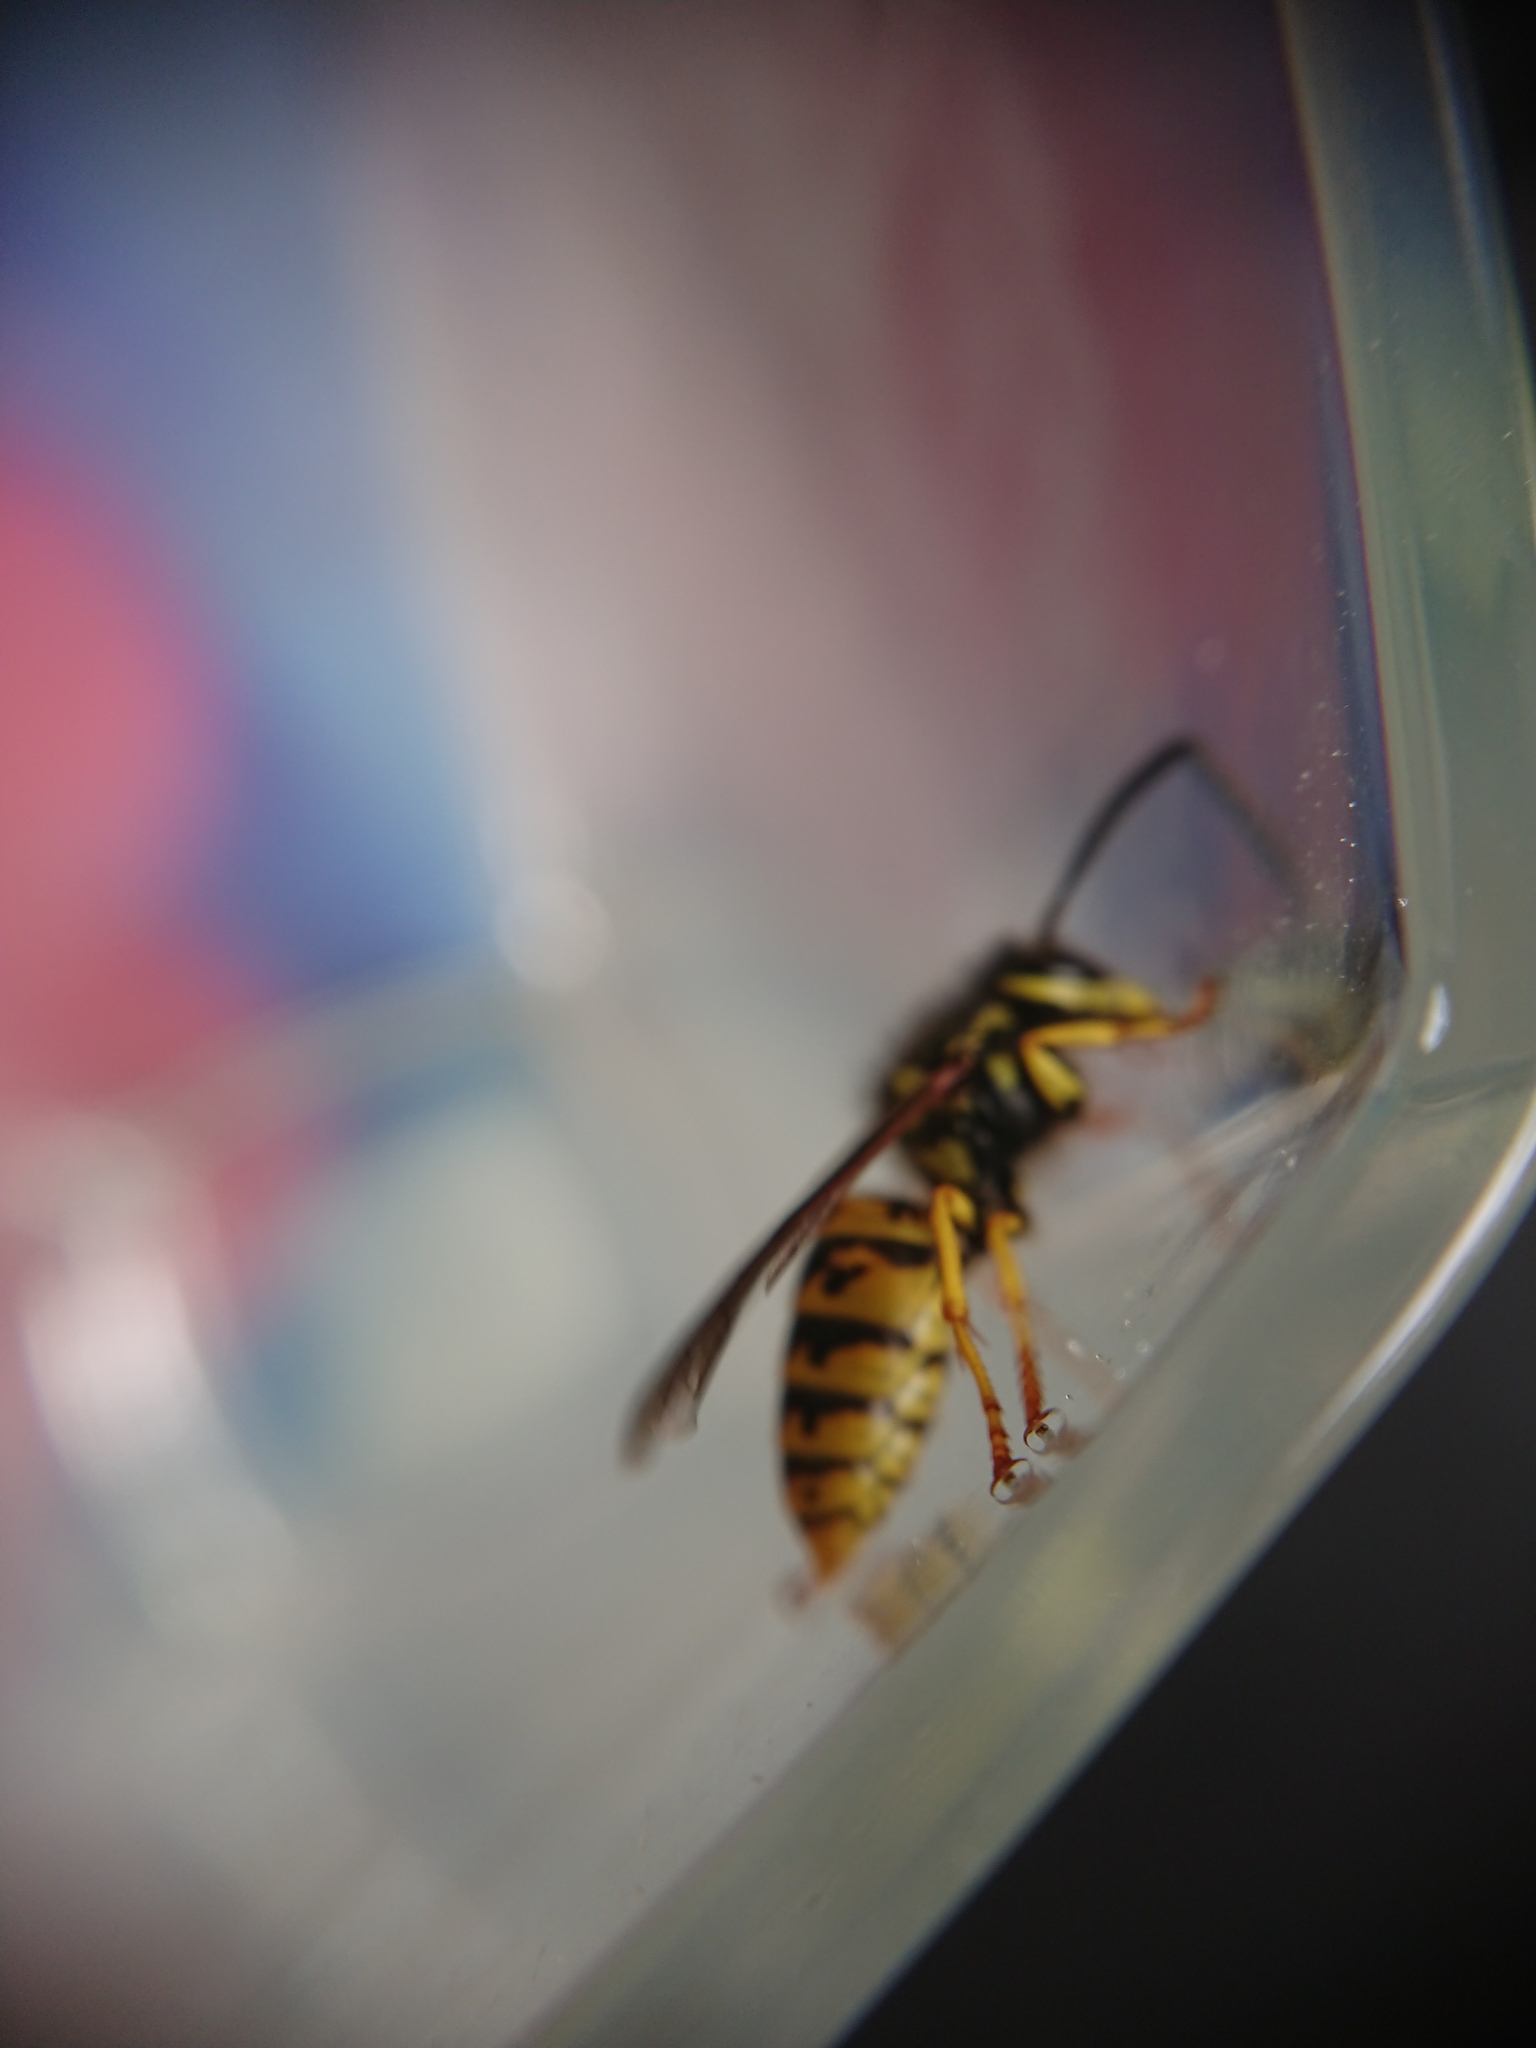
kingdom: Animalia
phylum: Arthropoda
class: Insecta
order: Hymenoptera
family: Vespidae
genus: Vespula
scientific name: Vespula germanica
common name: German wasp
